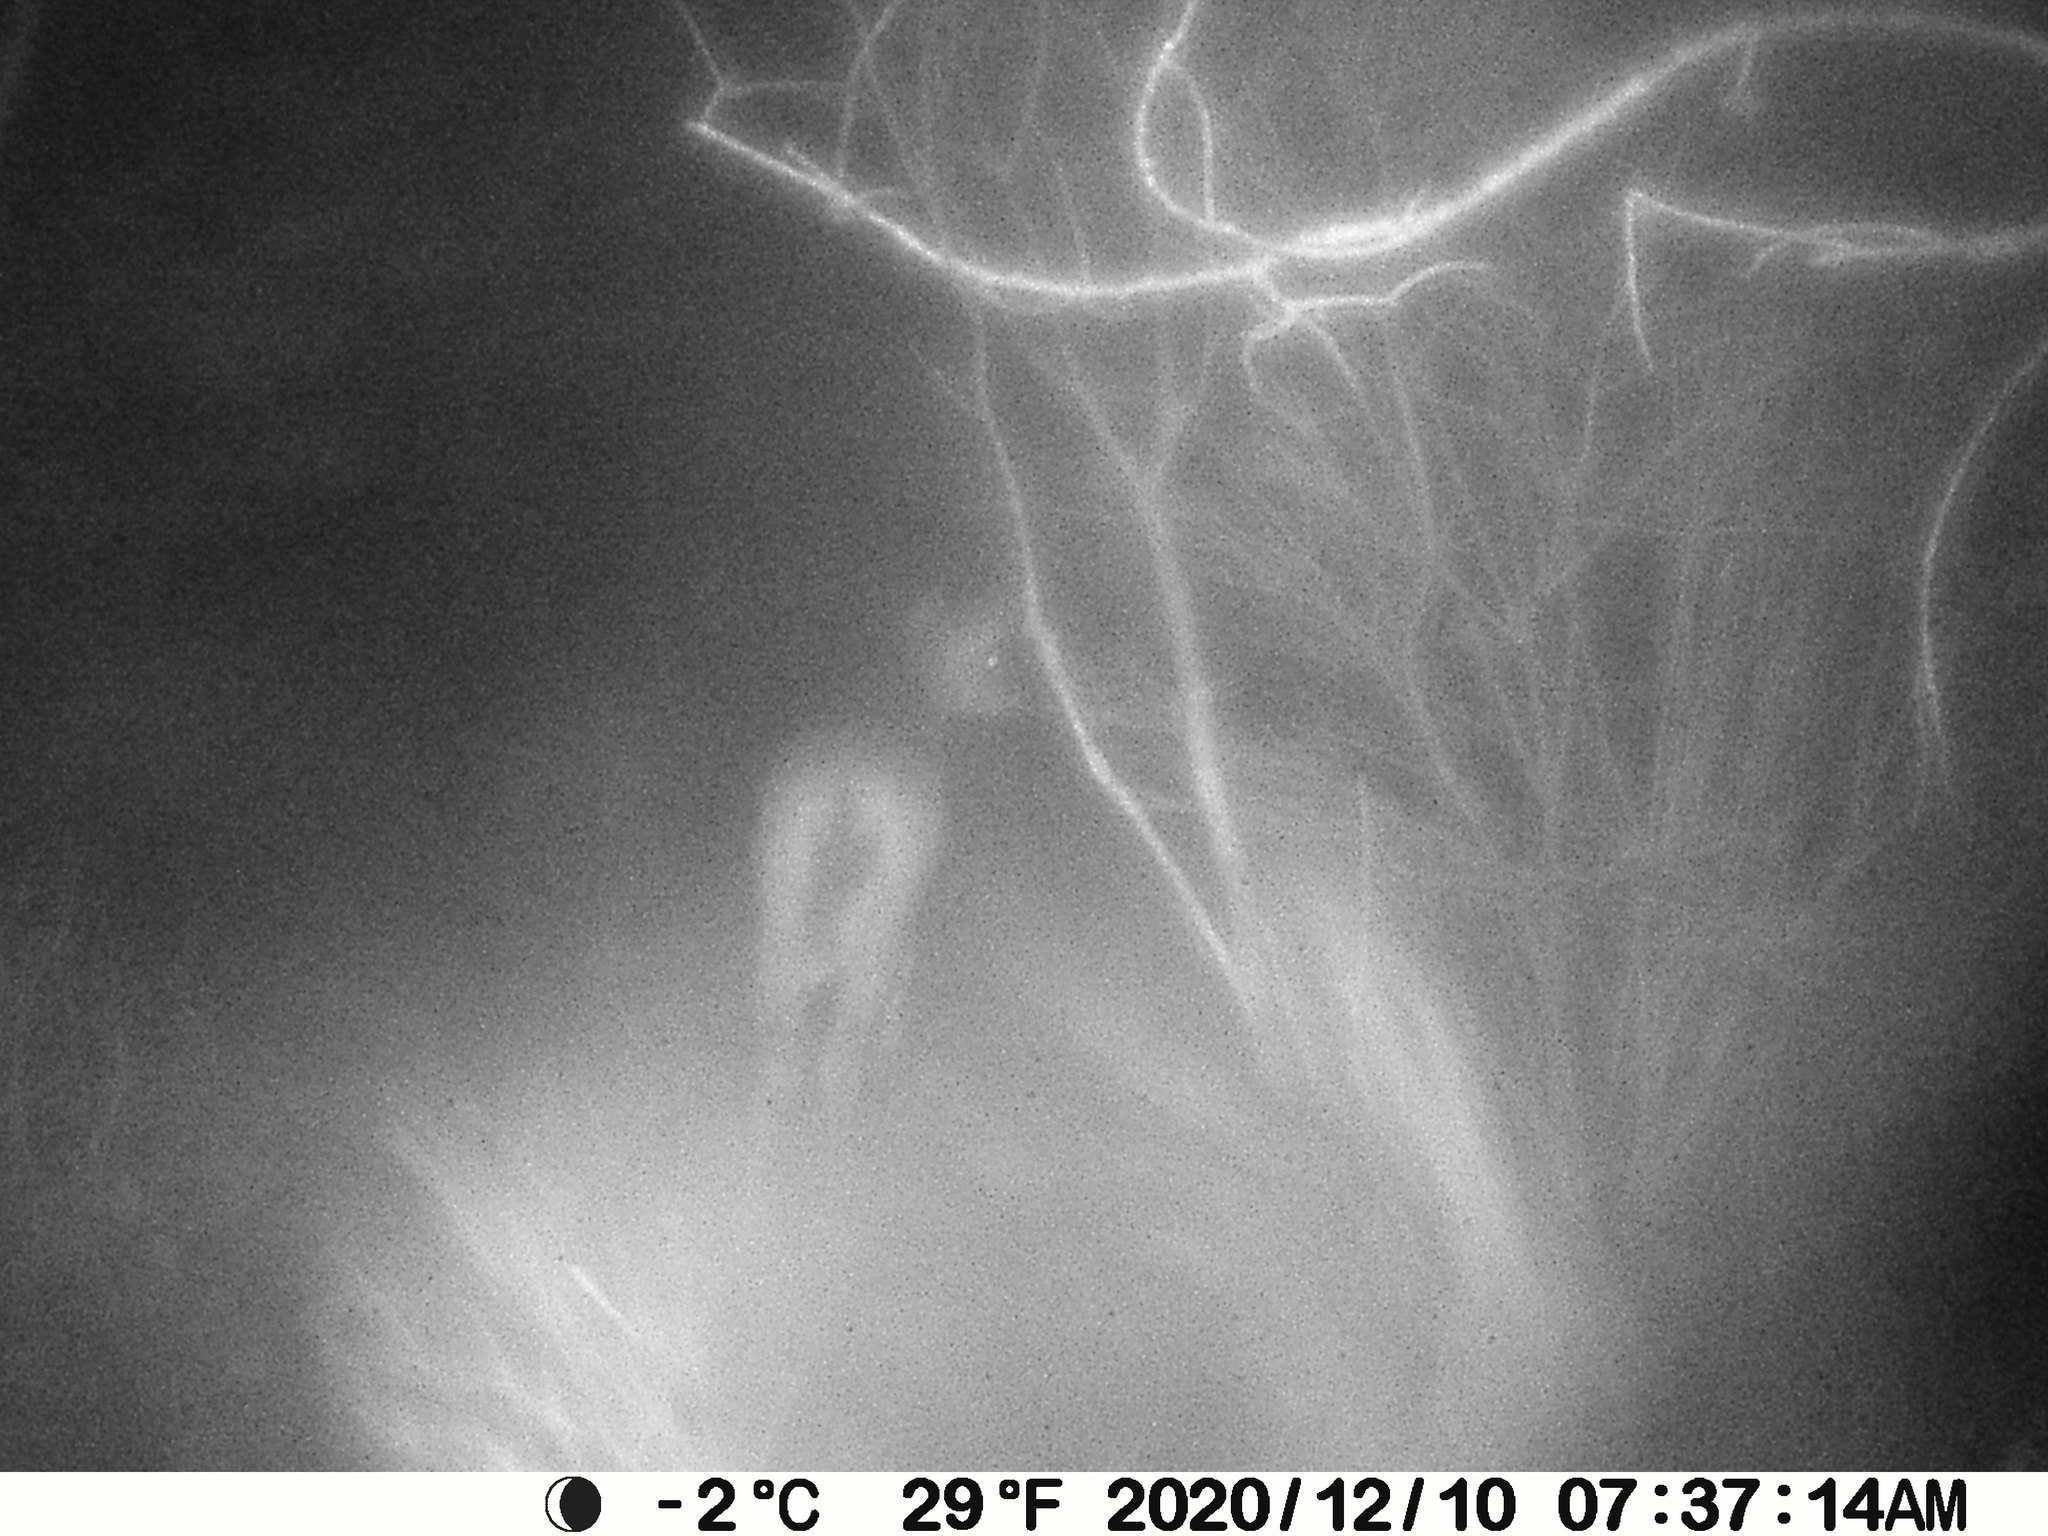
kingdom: Animalia
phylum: Chordata
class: Mammalia
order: Artiodactyla
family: Cervidae
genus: Odocoileus
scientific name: Odocoileus virginianus
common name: White-tailed deer
